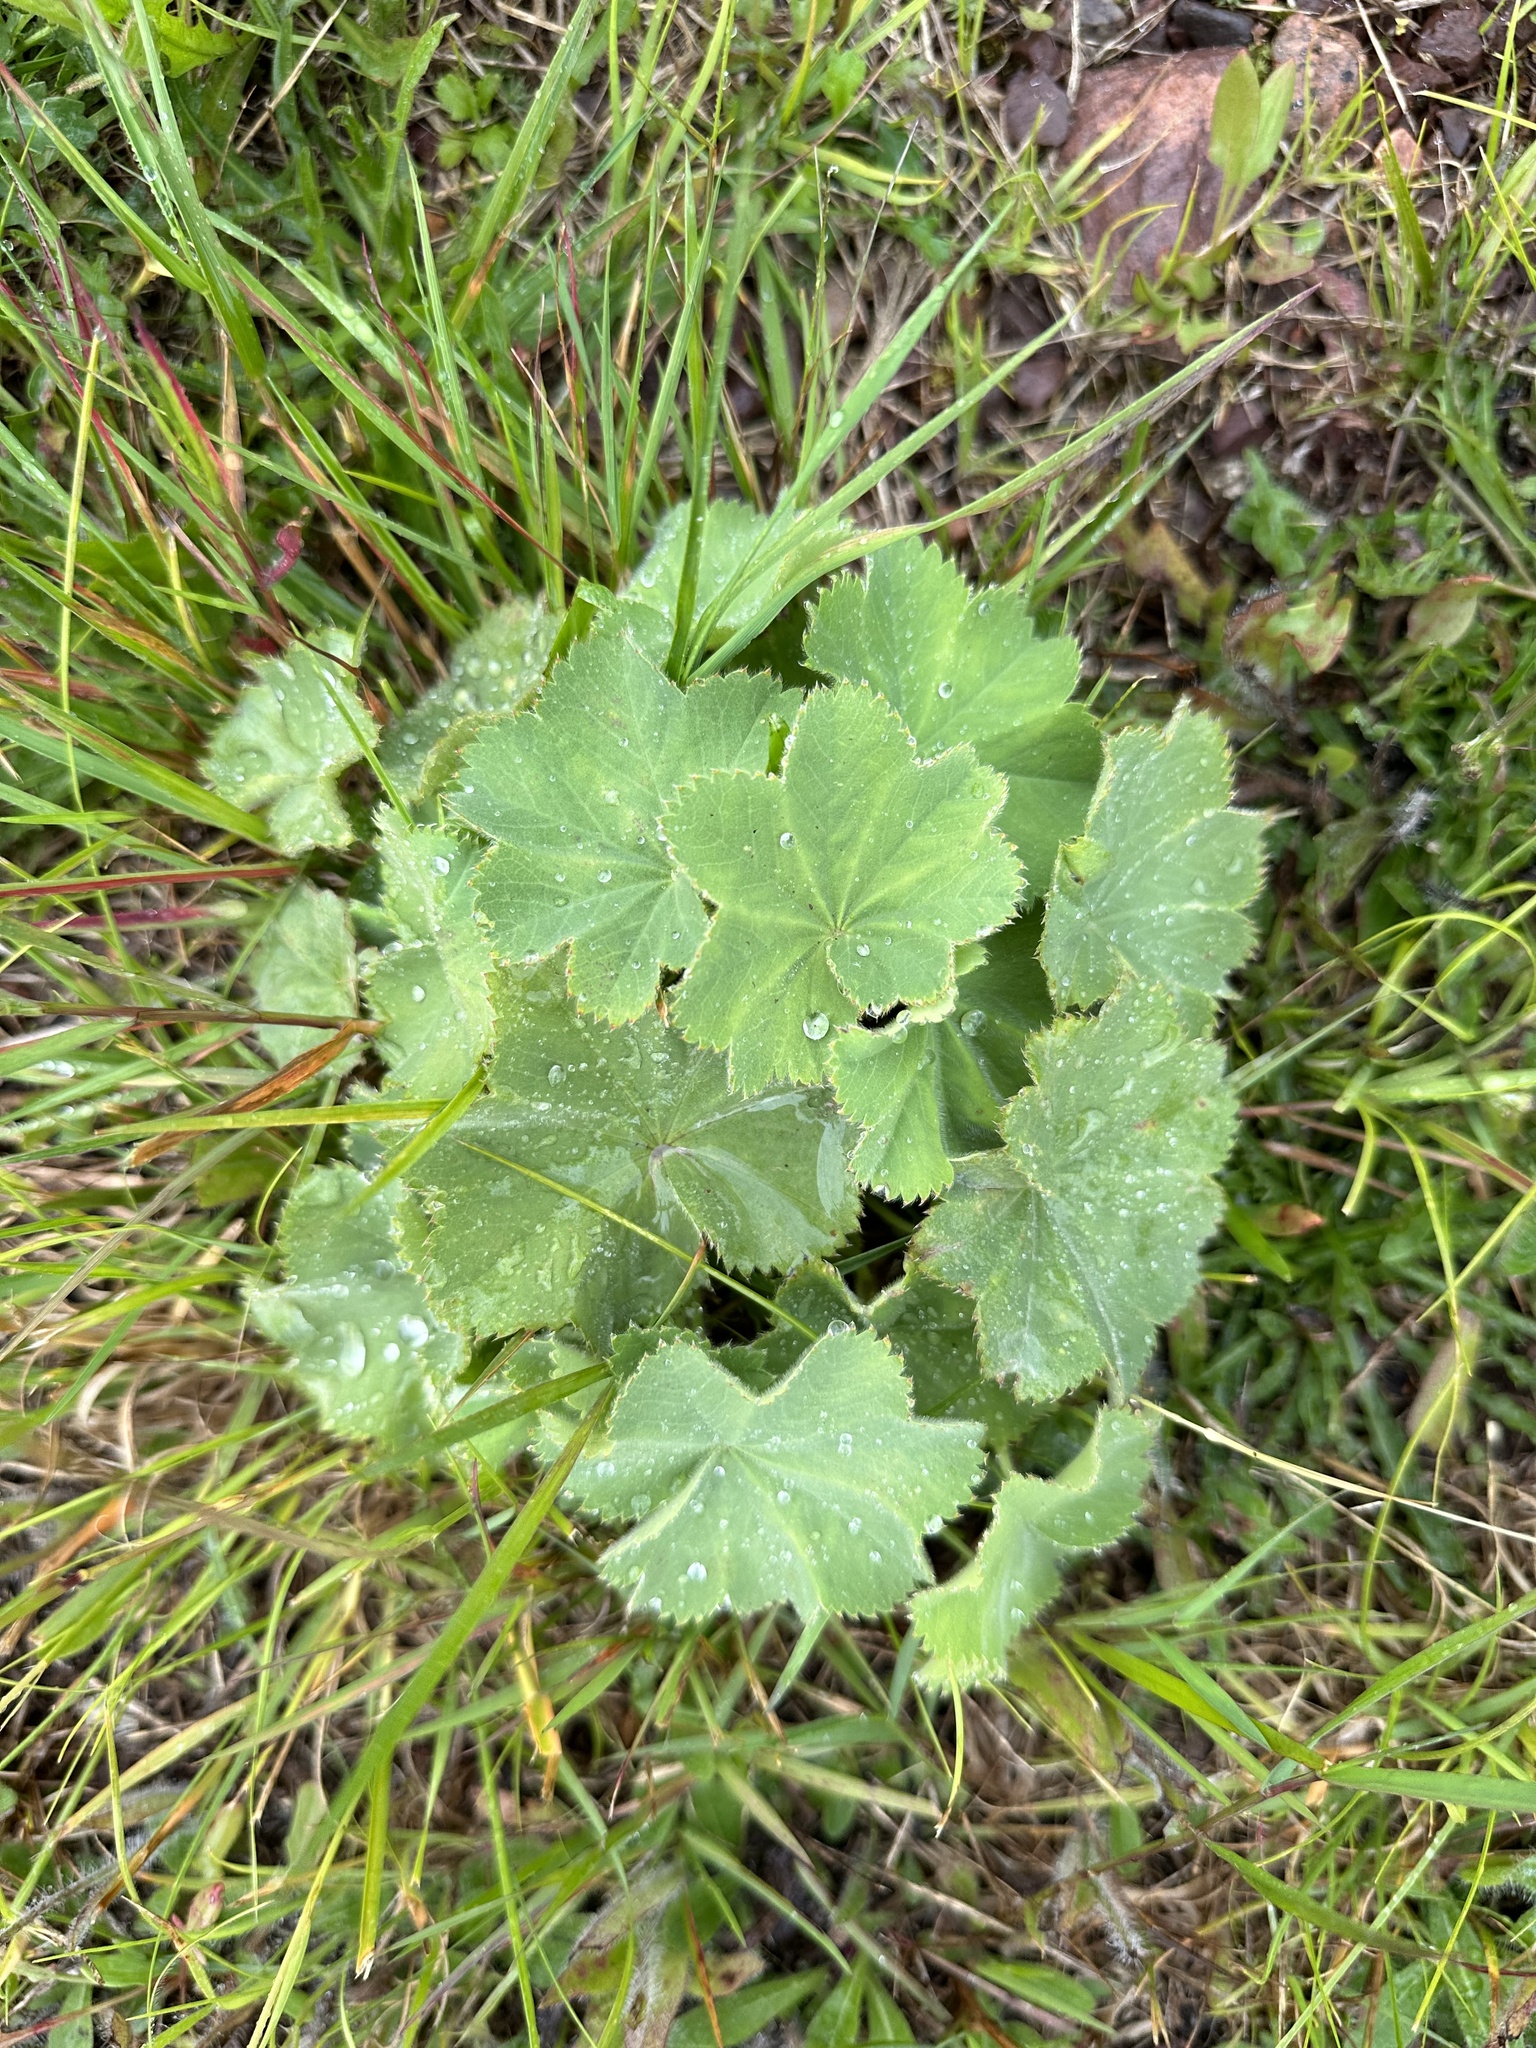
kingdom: Plantae
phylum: Tracheophyta
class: Magnoliopsida
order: Rosales
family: Rosaceae
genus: Alchemilla
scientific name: Alchemilla mollis
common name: Lady's-mantle
